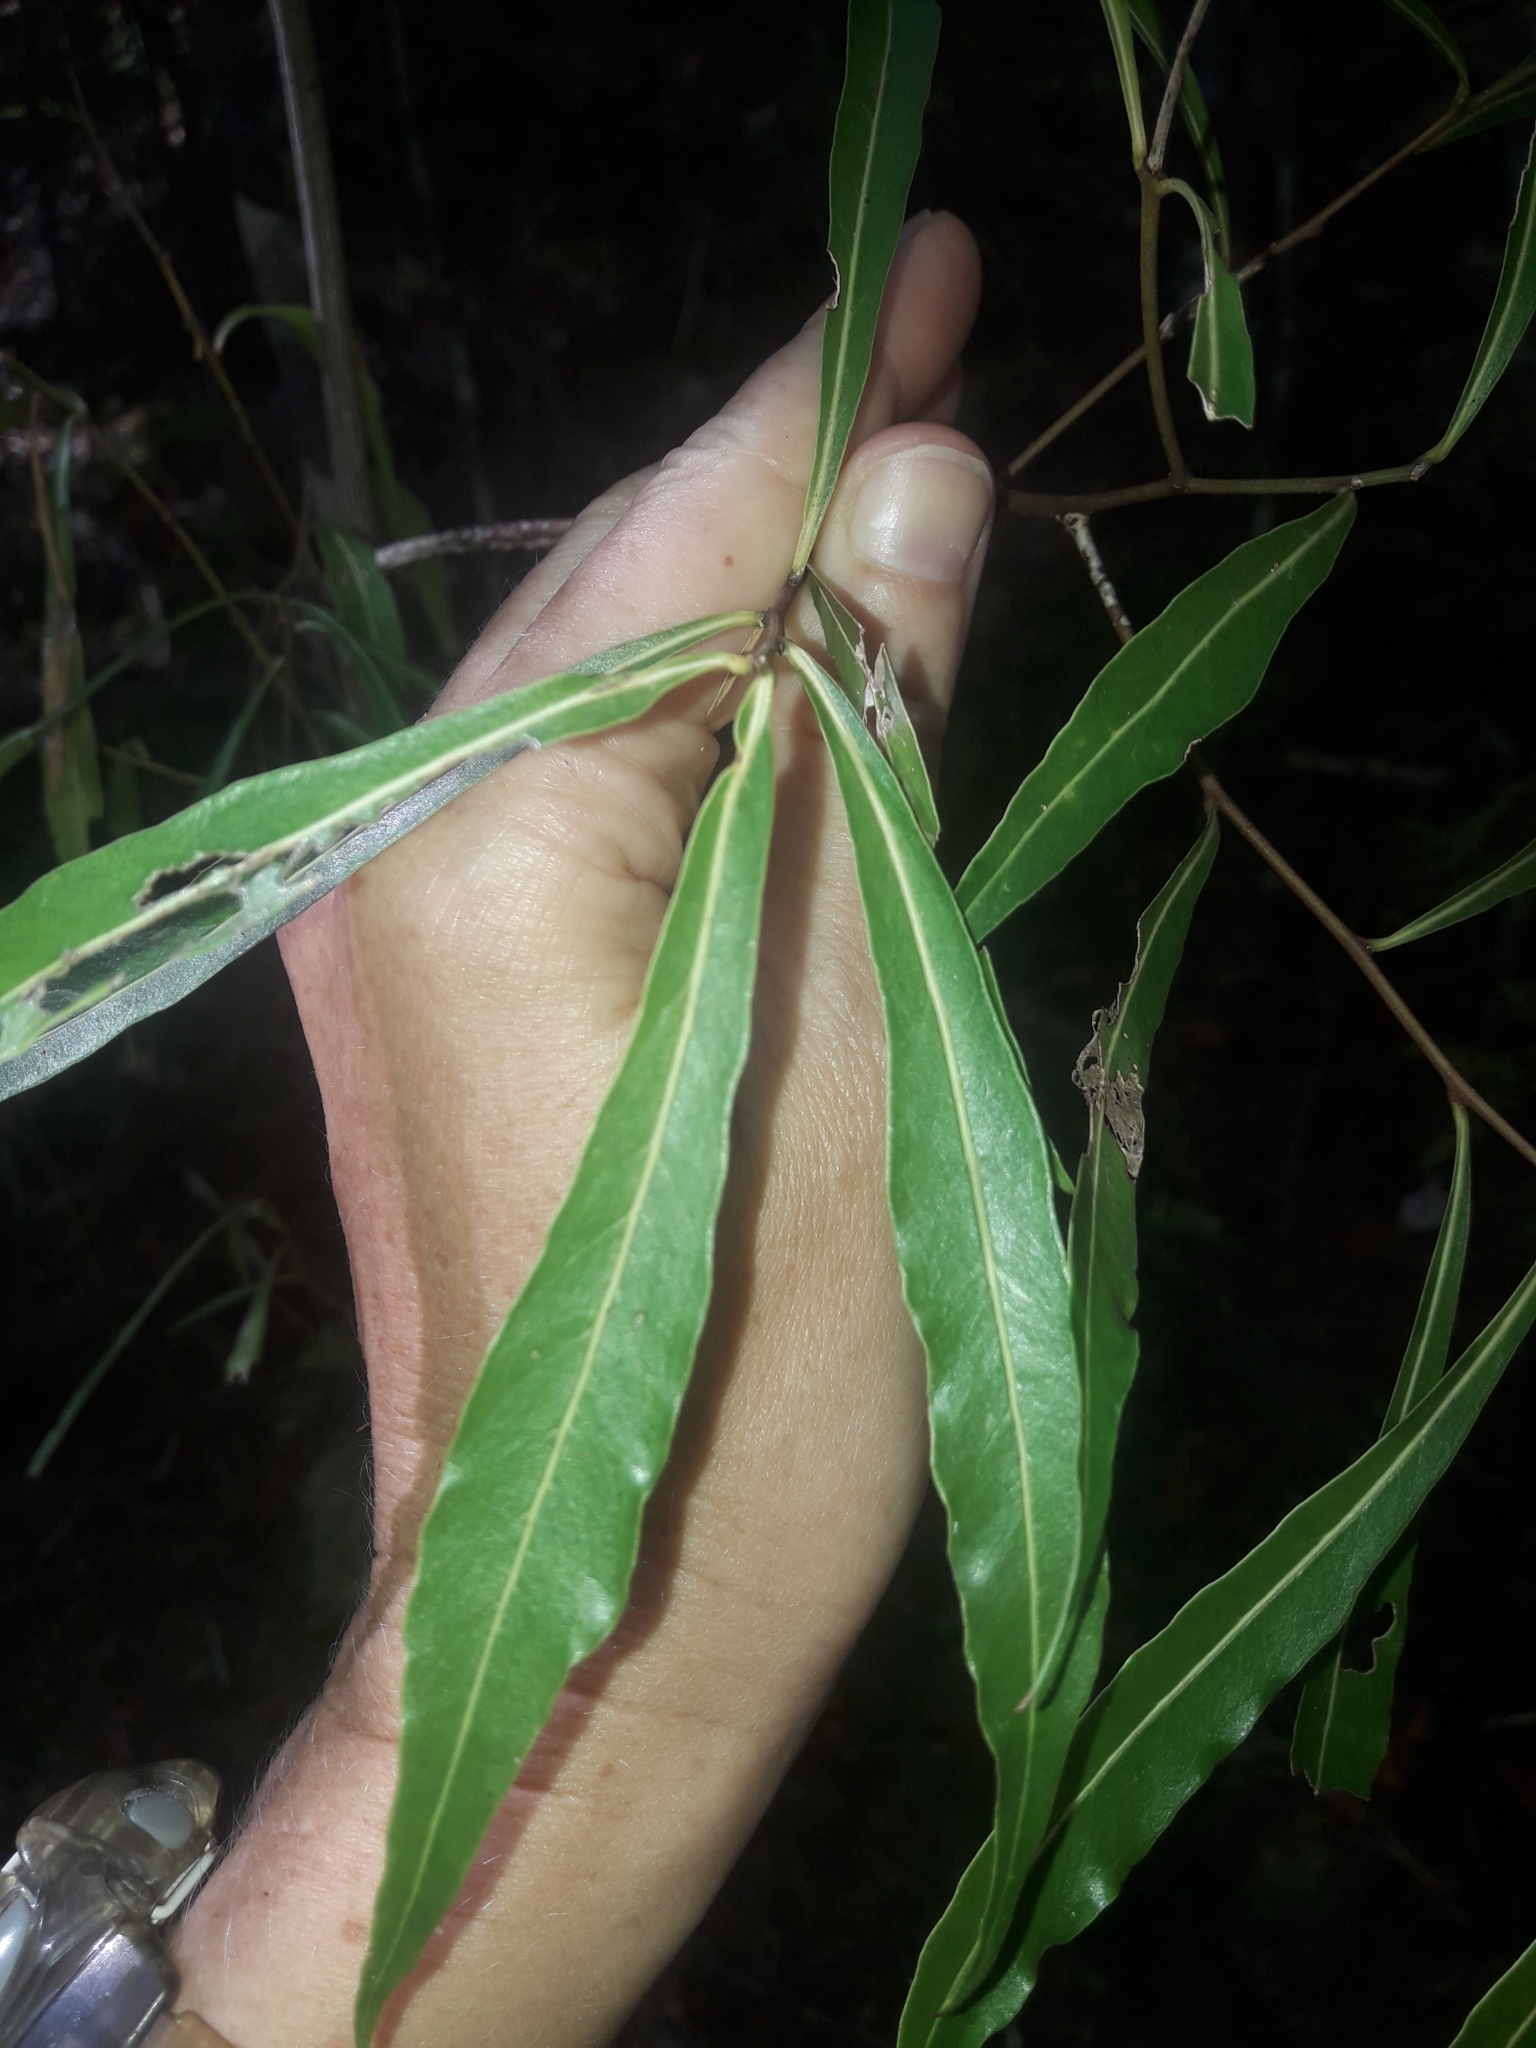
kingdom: Plantae
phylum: Tracheophyta
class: Magnoliopsida
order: Santalales
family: Nanodeaceae
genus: Mida
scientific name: Mida salicifolia
